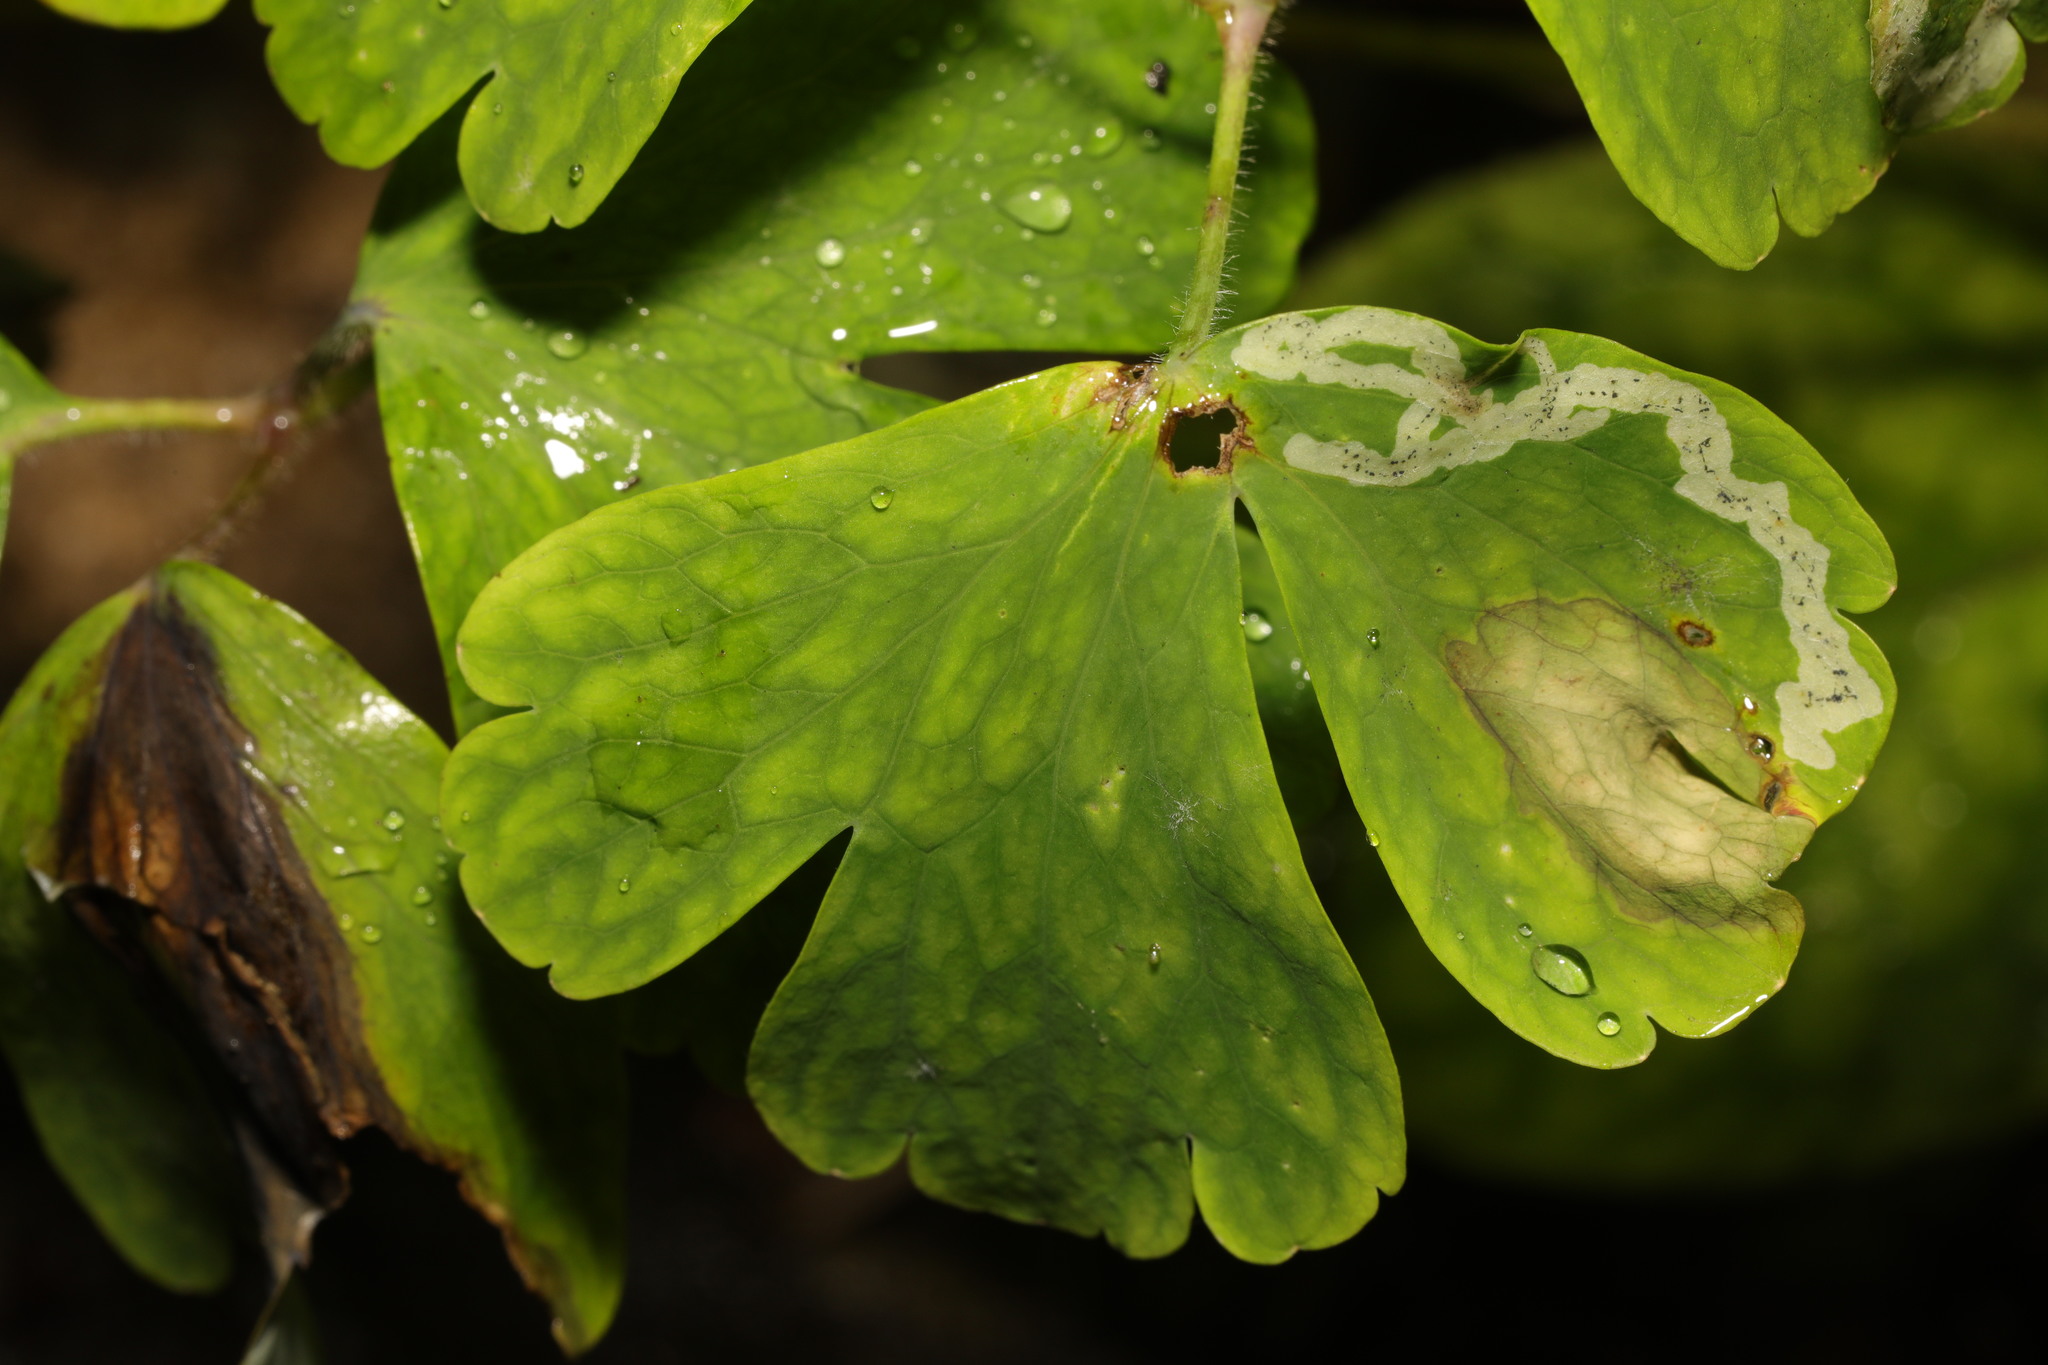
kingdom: Animalia
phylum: Arthropoda
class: Insecta
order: Diptera
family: Agromyzidae
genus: Phytomyza
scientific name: Phytomyza ancholiae
